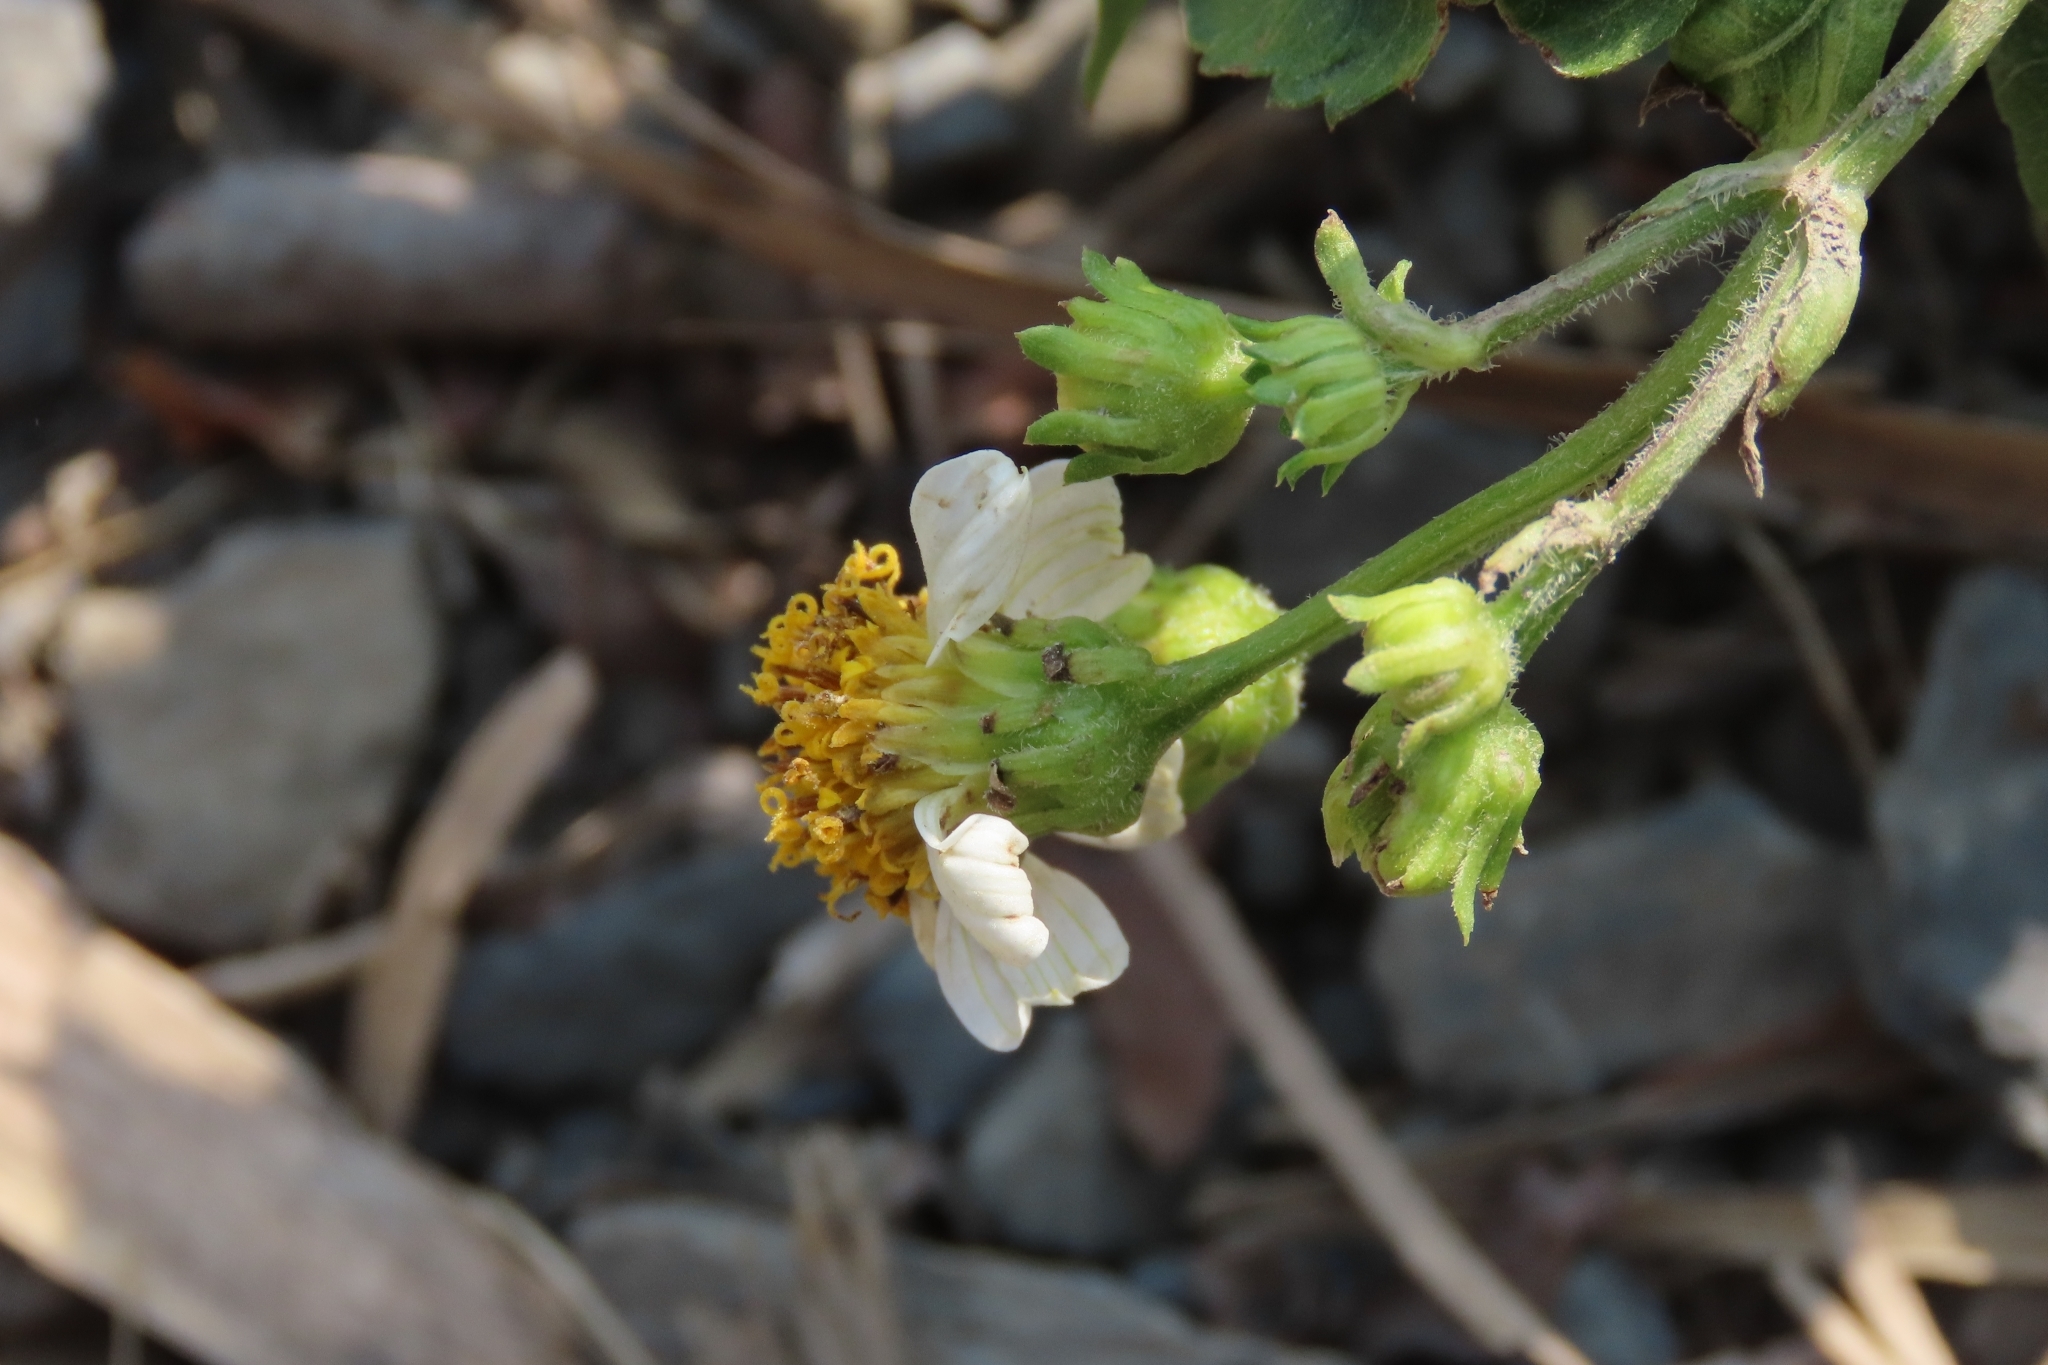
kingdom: Plantae
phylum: Tracheophyta
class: Magnoliopsida
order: Asterales
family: Asteraceae
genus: Bidens
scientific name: Bidens alba
